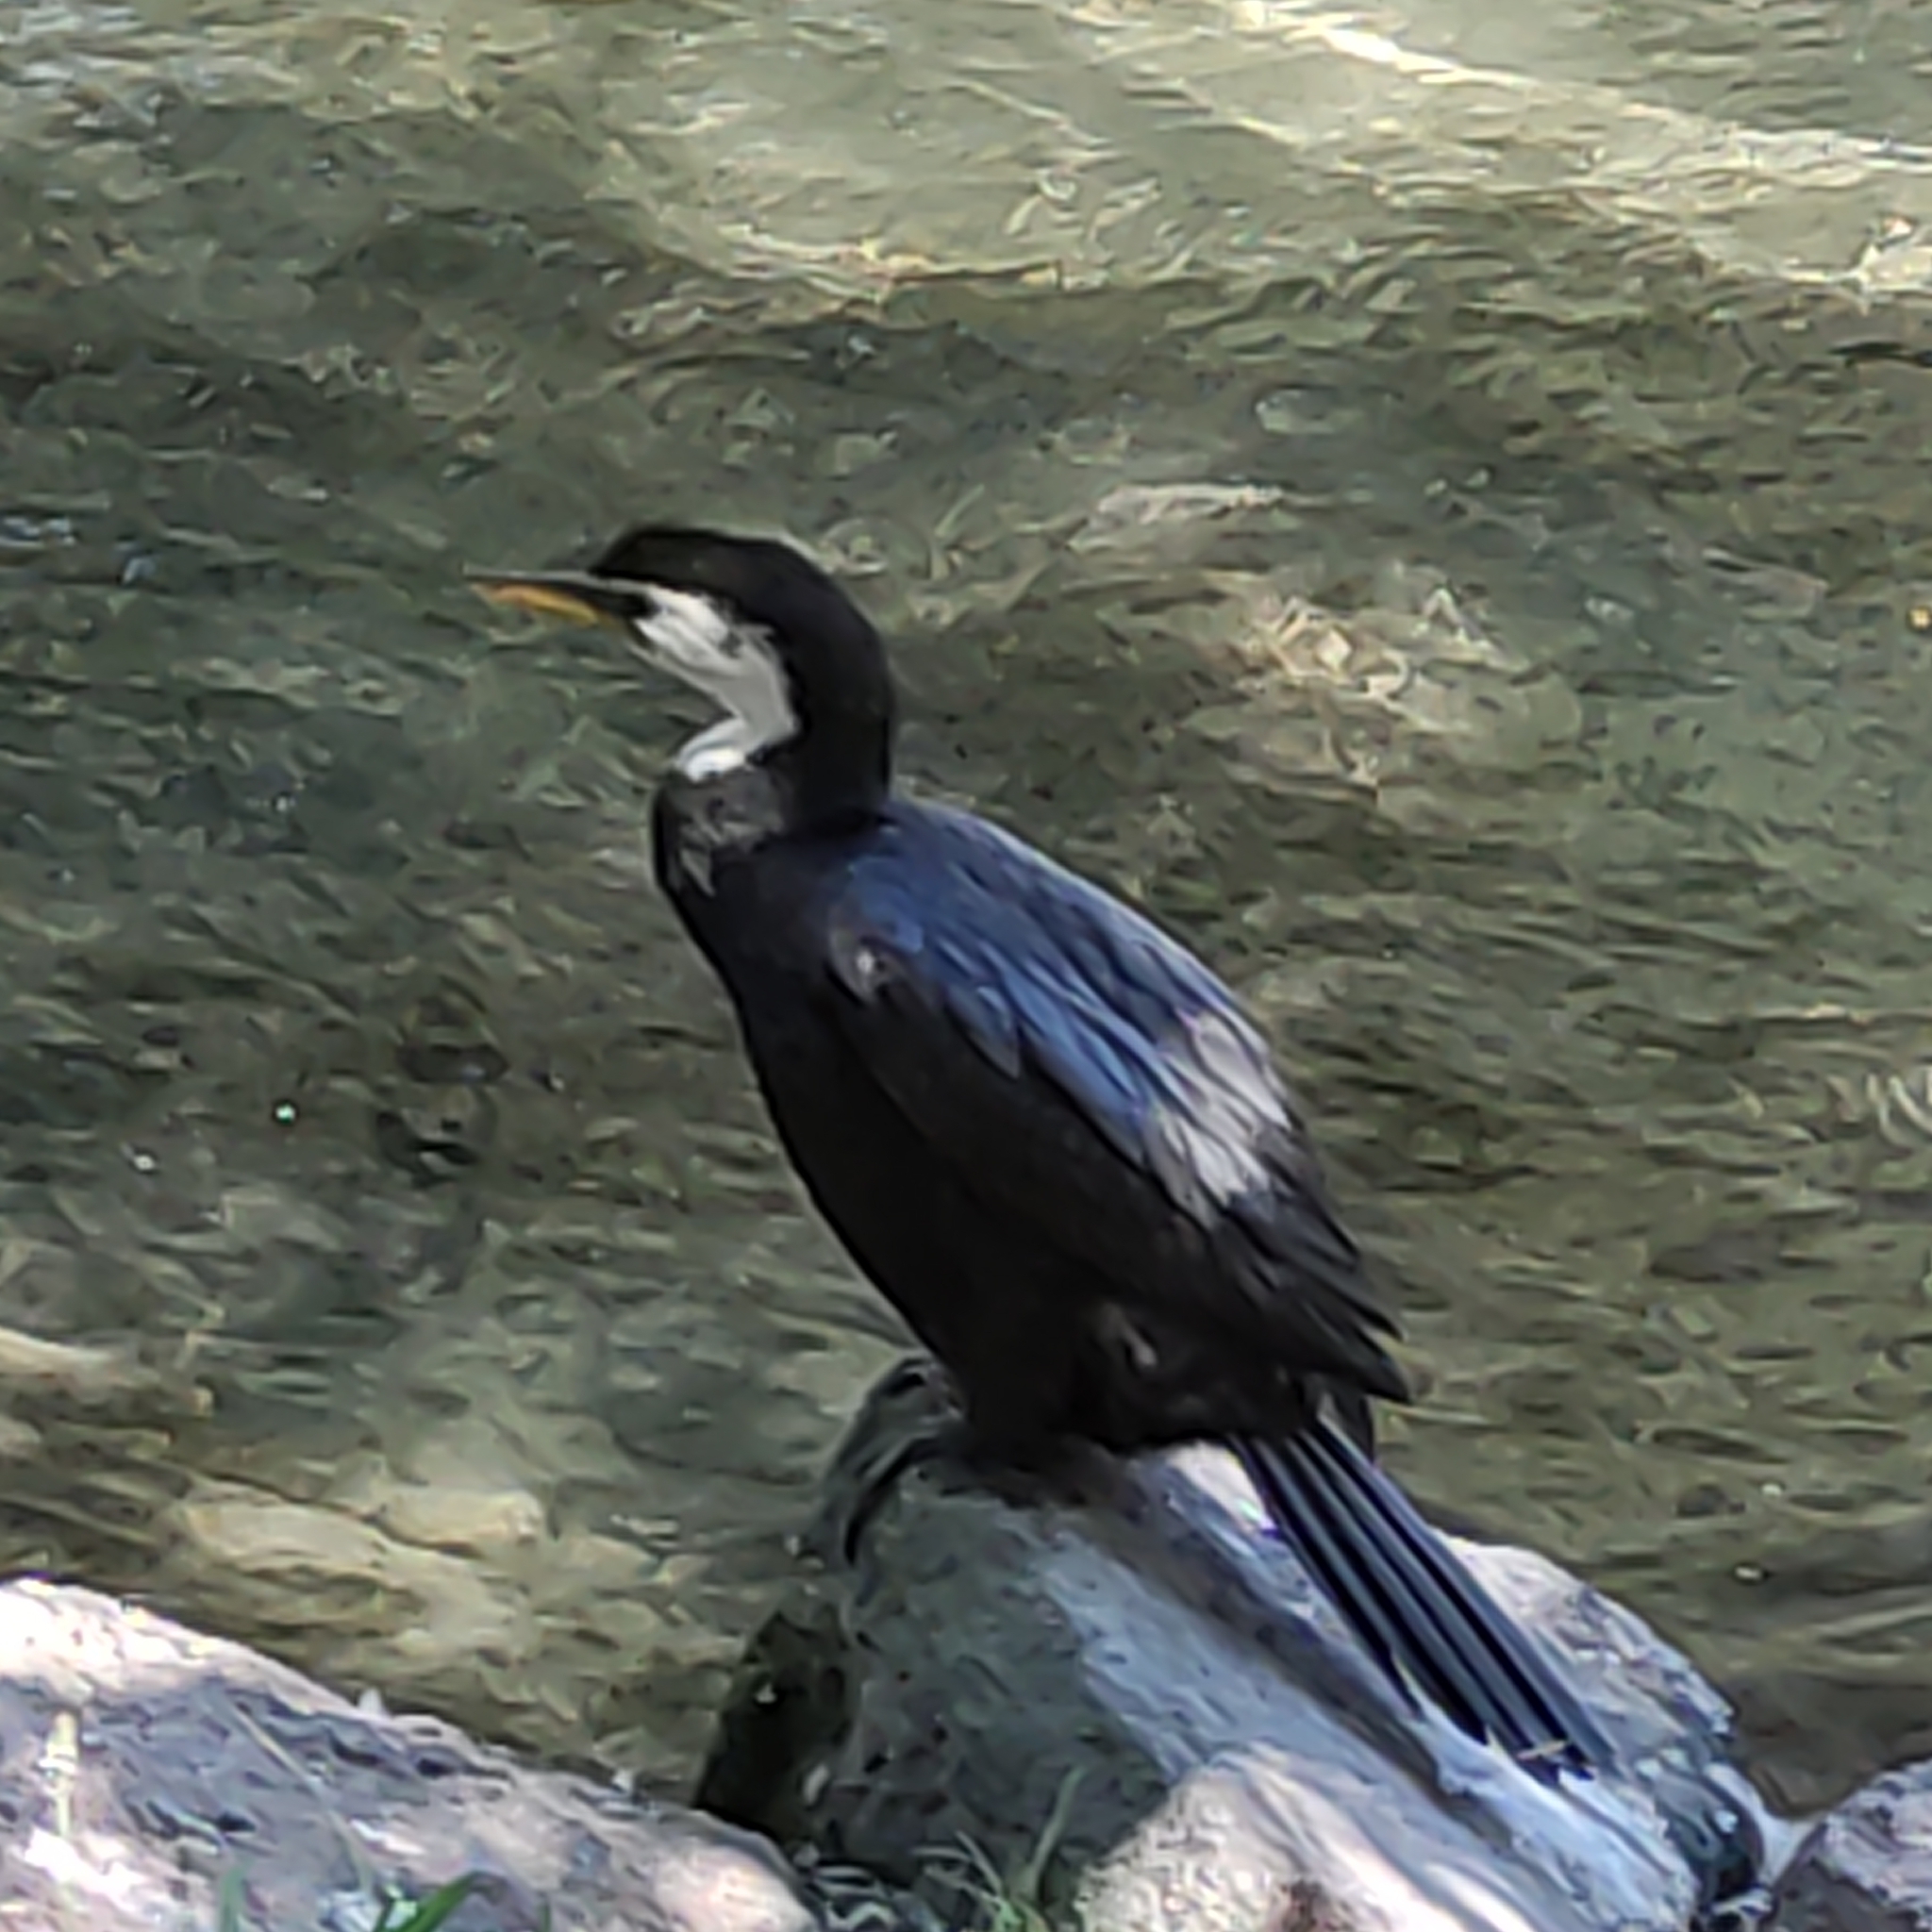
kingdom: Animalia
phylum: Chordata
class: Aves
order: Suliformes
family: Phalacrocoracidae
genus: Microcarbo
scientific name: Microcarbo melanoleucos
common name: Little pied cormorant
